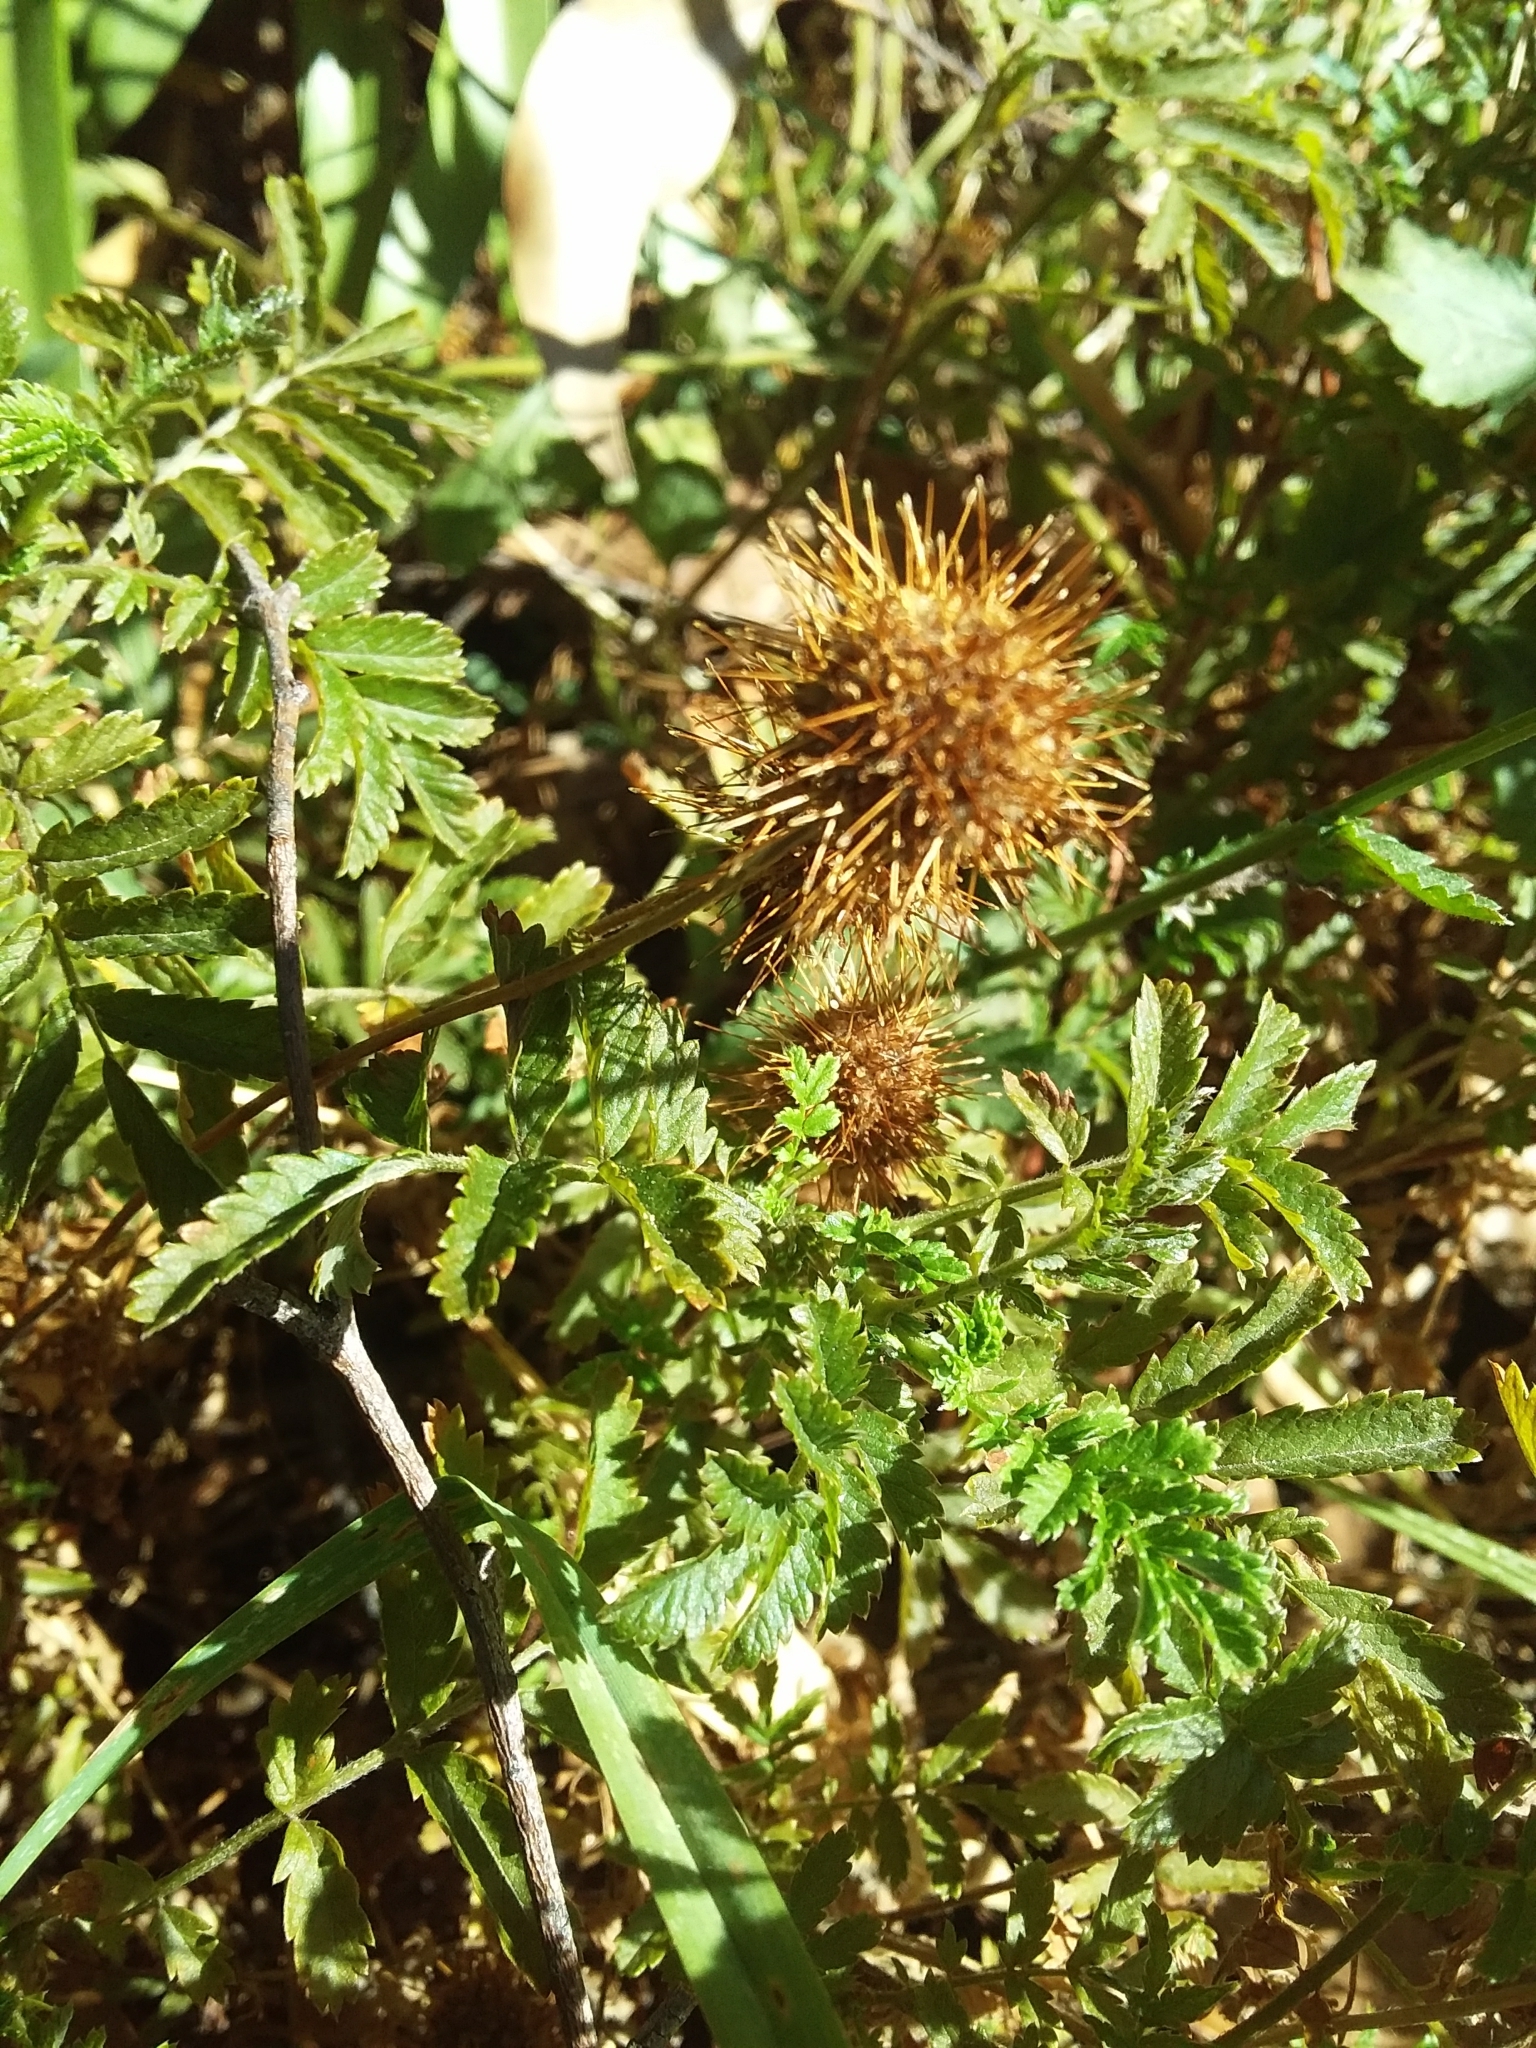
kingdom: Plantae
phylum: Tracheophyta
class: Magnoliopsida
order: Rosales
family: Rosaceae
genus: Acaena
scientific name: Acaena novae-zelandiae
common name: Pirri-pirri-bur
